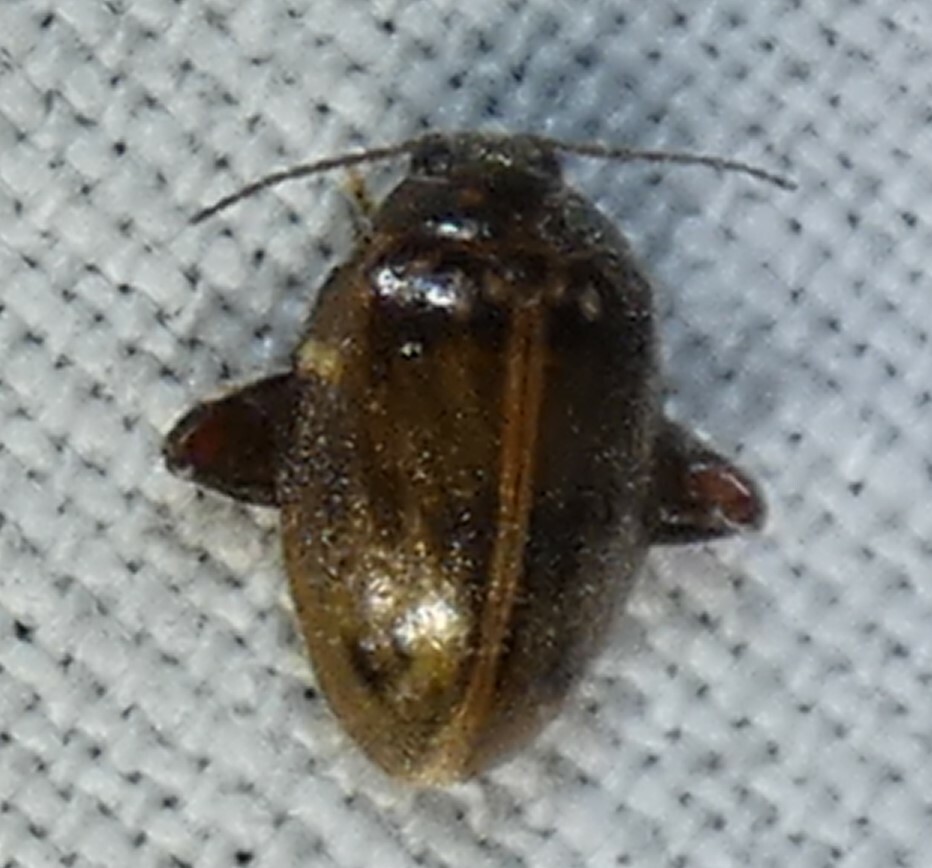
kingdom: Animalia
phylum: Arthropoda
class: Insecta
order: Coleoptera
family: Scirtidae
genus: Ora
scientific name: Ora texana
